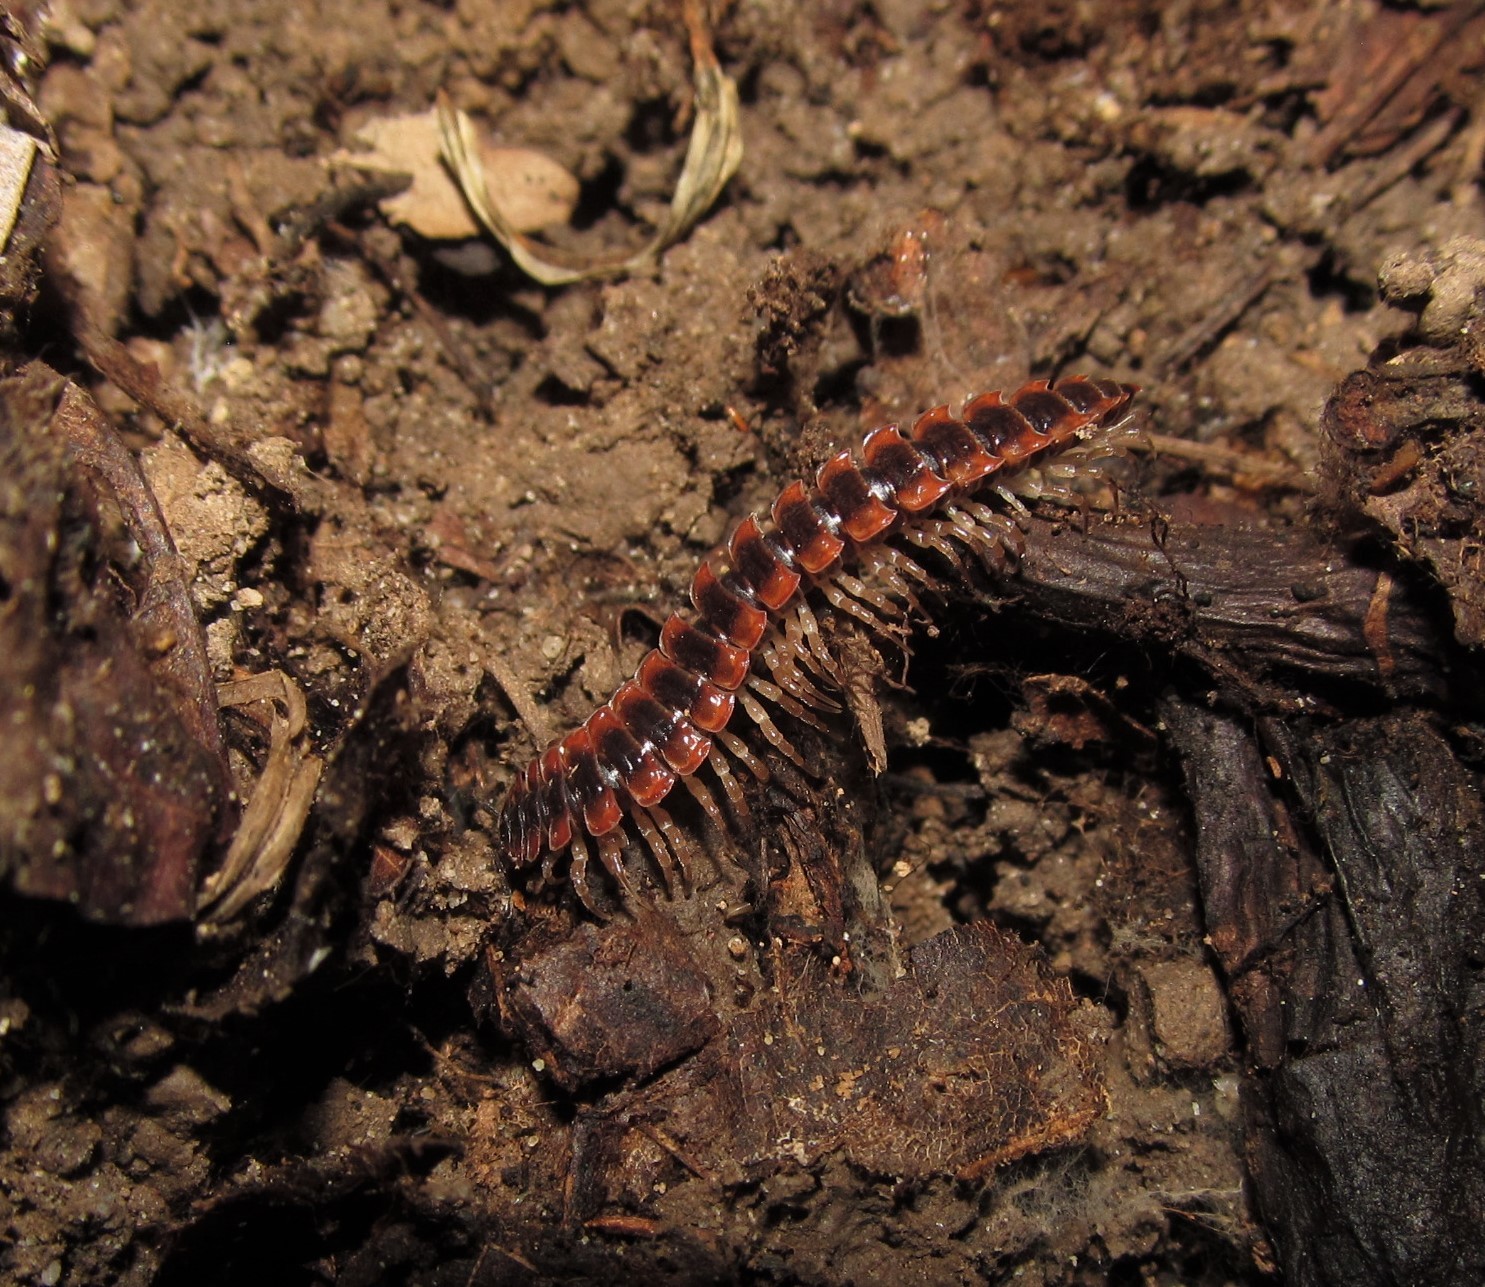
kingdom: Animalia
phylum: Arthropoda
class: Diplopoda
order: Polydesmida
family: Polydesmidae
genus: Pseudopolydesmus
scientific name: Pseudopolydesmus canadensis
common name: Canadian flat-back millipede
